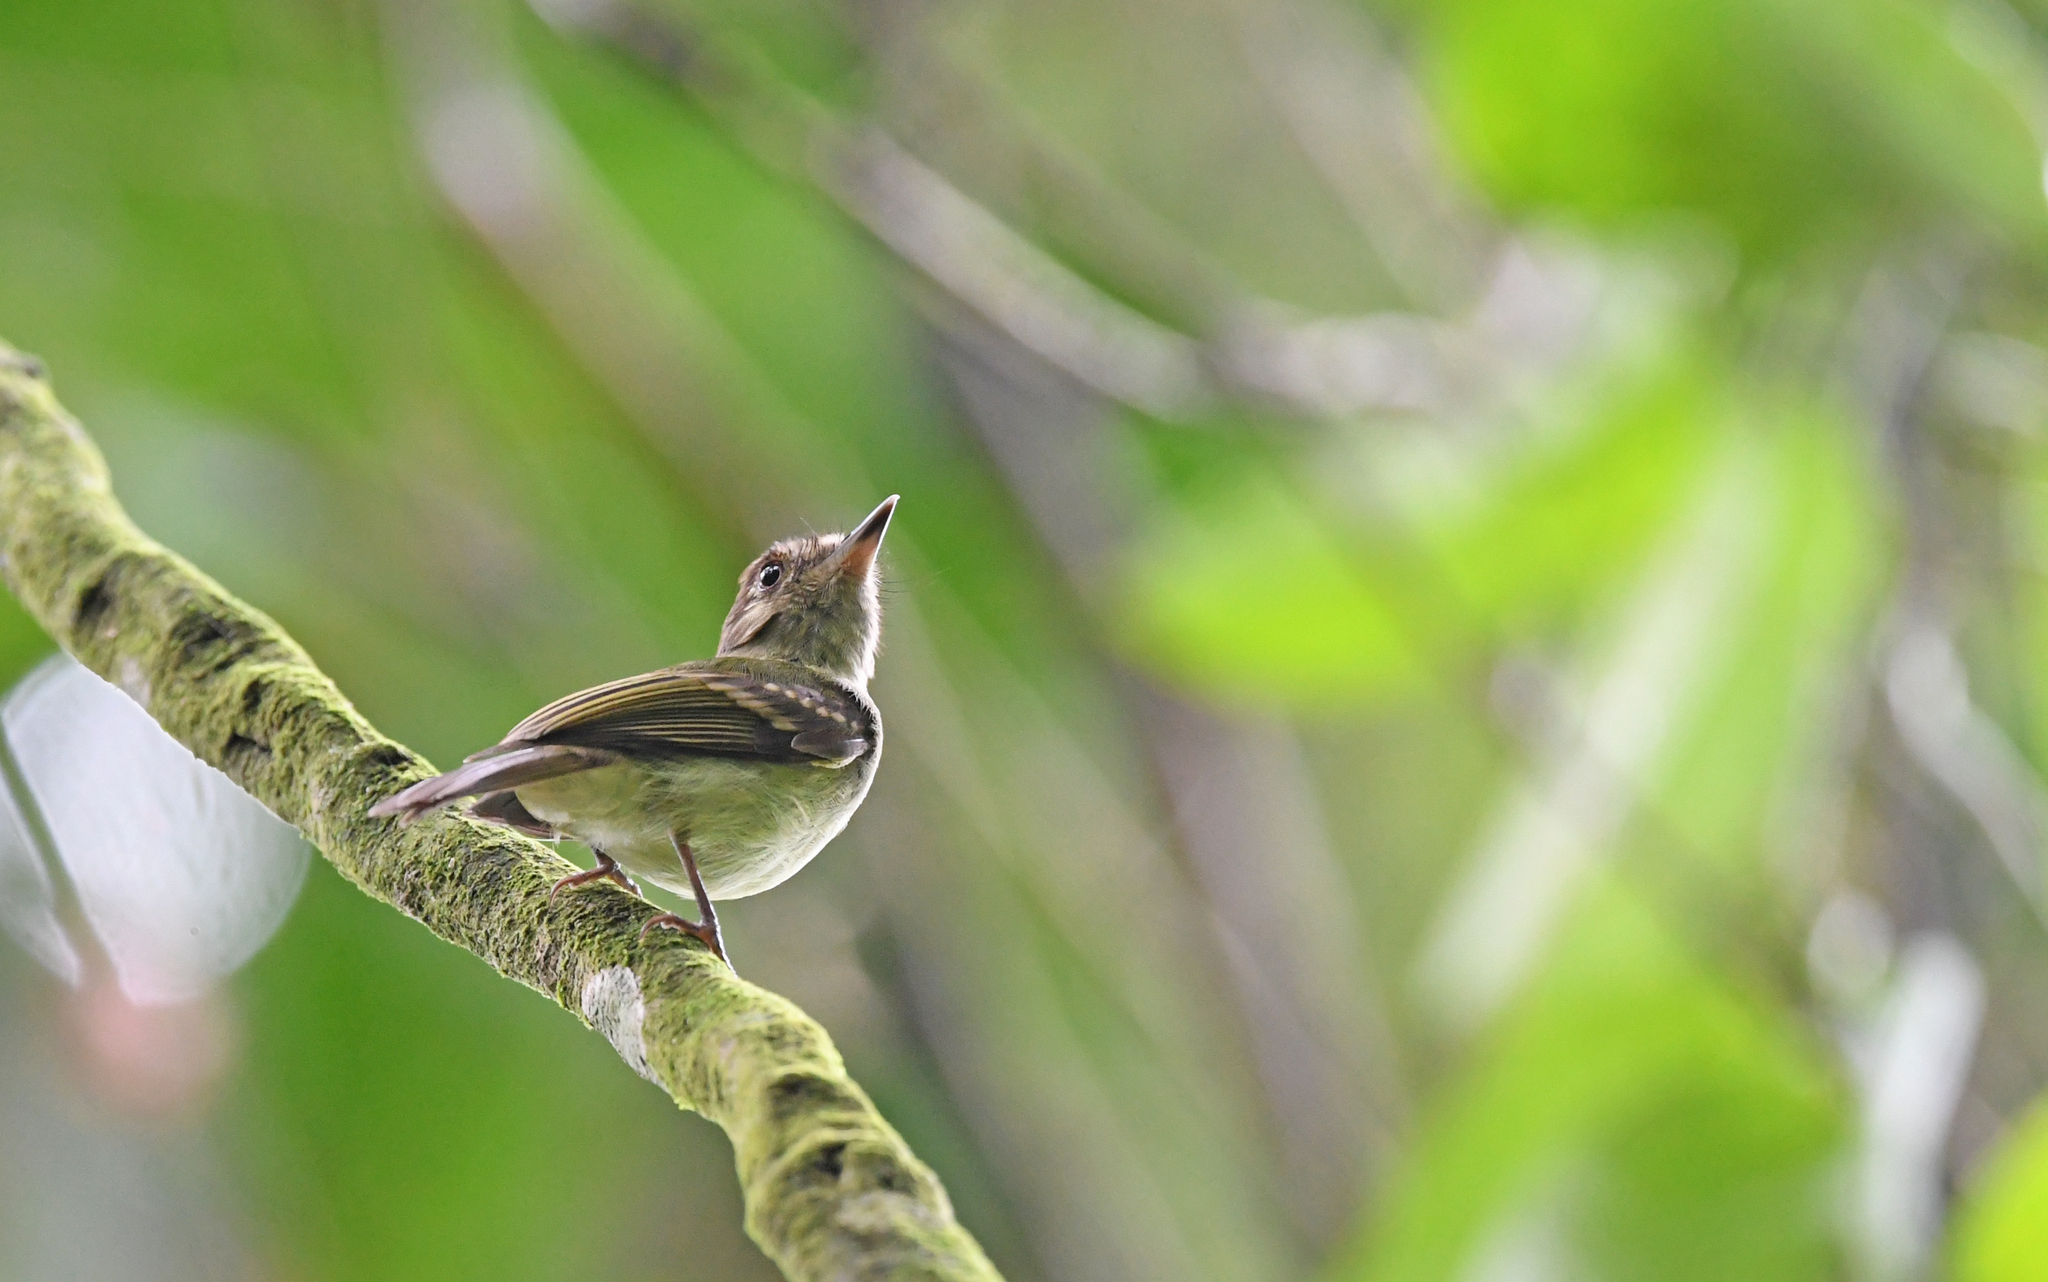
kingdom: Animalia
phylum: Chordata
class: Aves
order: Passeriformes
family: Tyrannidae
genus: Leptopogon
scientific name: Leptopogon amaurocephalus
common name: Sepia-capped flycatcher
